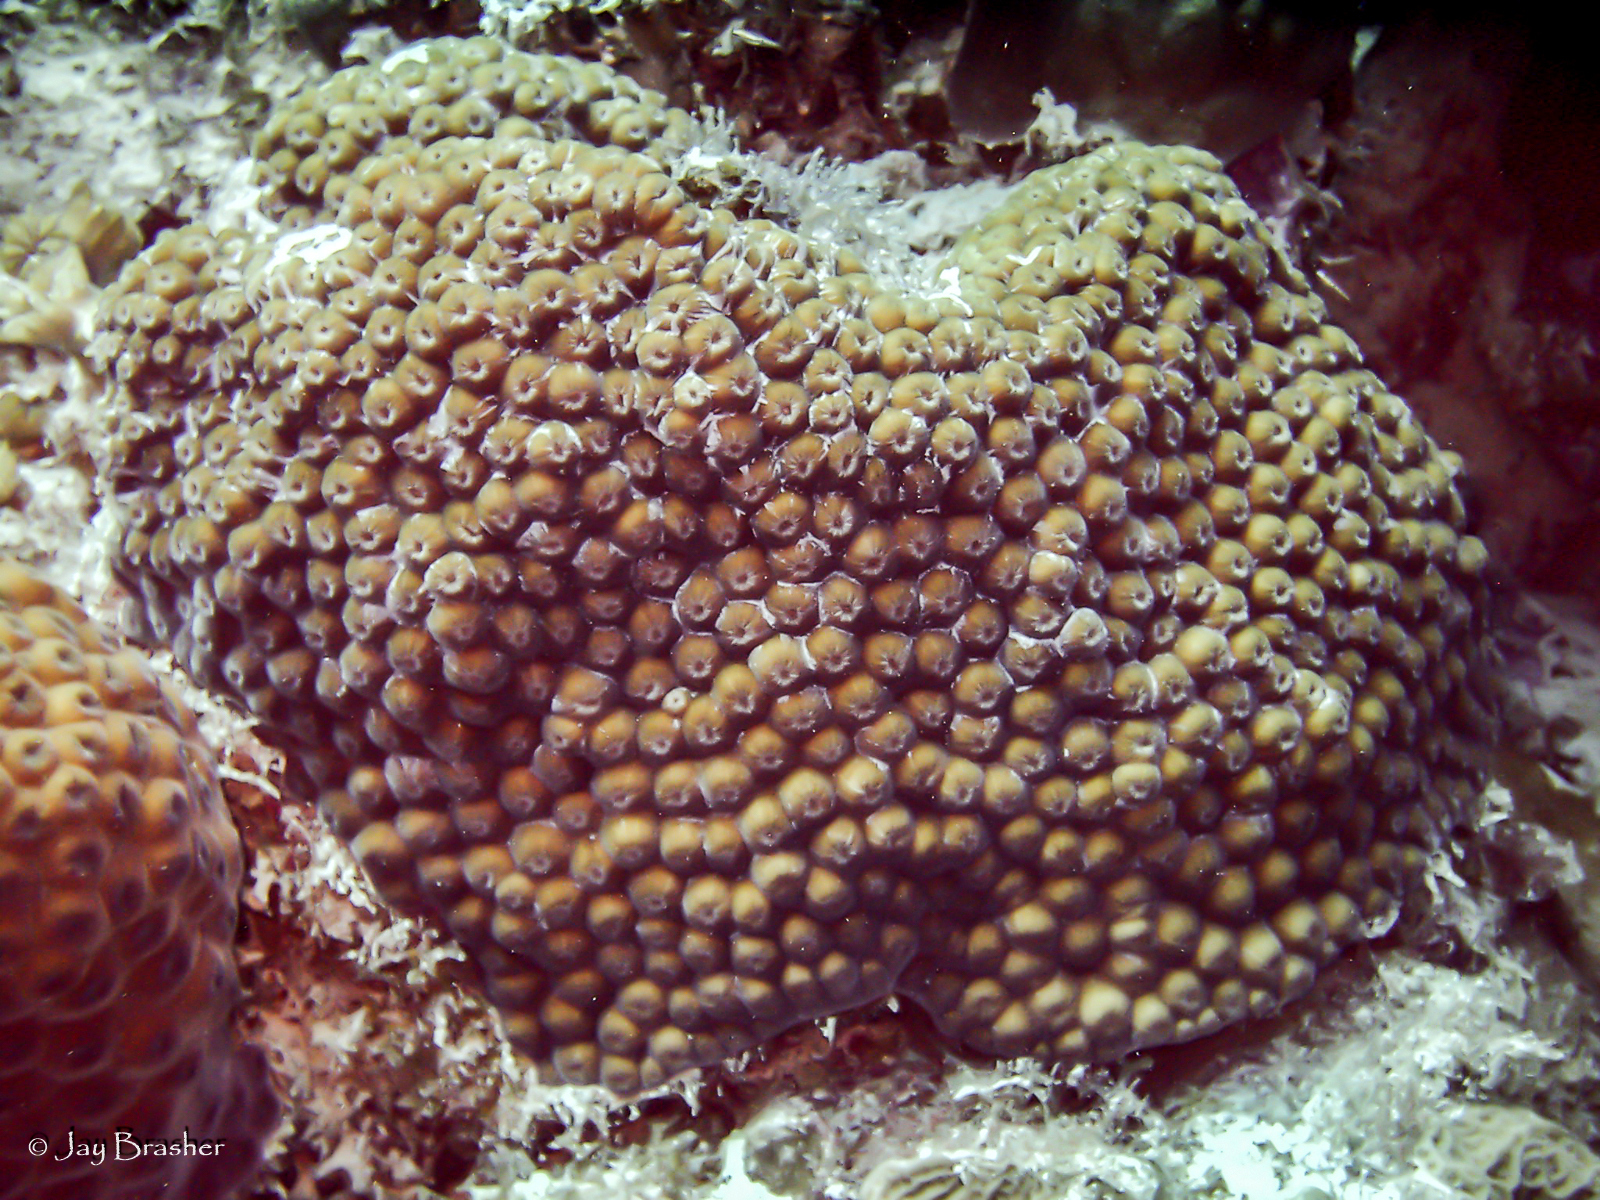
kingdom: Animalia
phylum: Cnidaria
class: Anthozoa
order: Scleractinia
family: Montastraeidae
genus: Montastraea
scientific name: Montastraea cavernosa
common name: Great star coral
